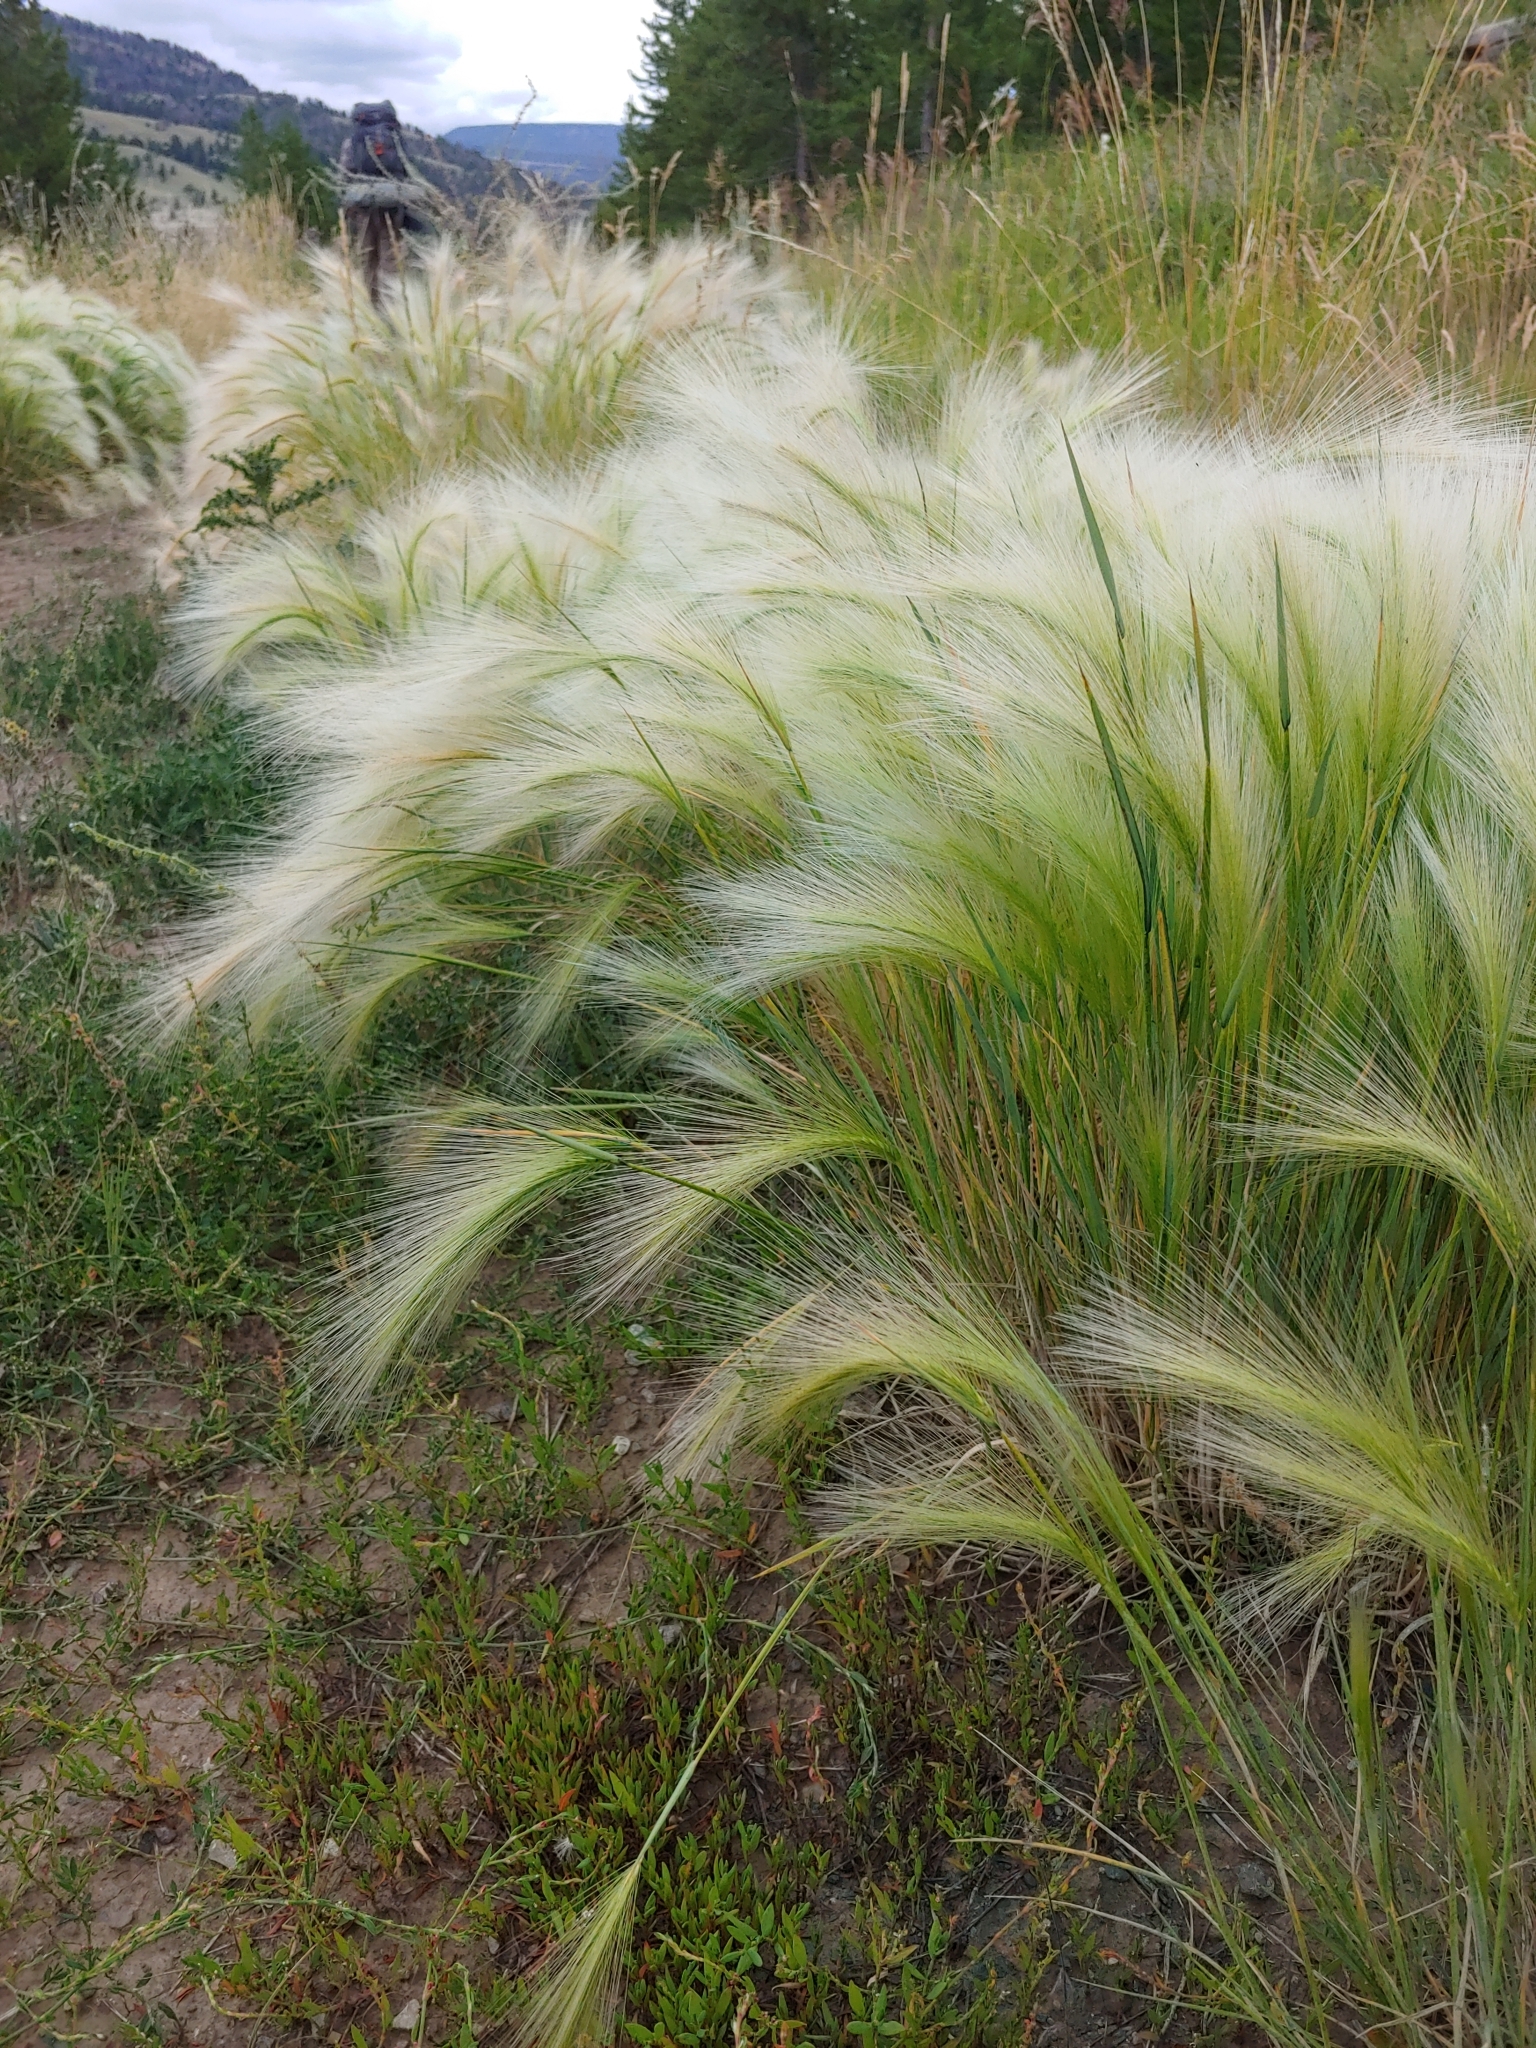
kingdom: Plantae
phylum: Tracheophyta
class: Liliopsida
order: Poales
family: Poaceae
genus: Hordeum
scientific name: Hordeum jubatum
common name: Foxtail barley
